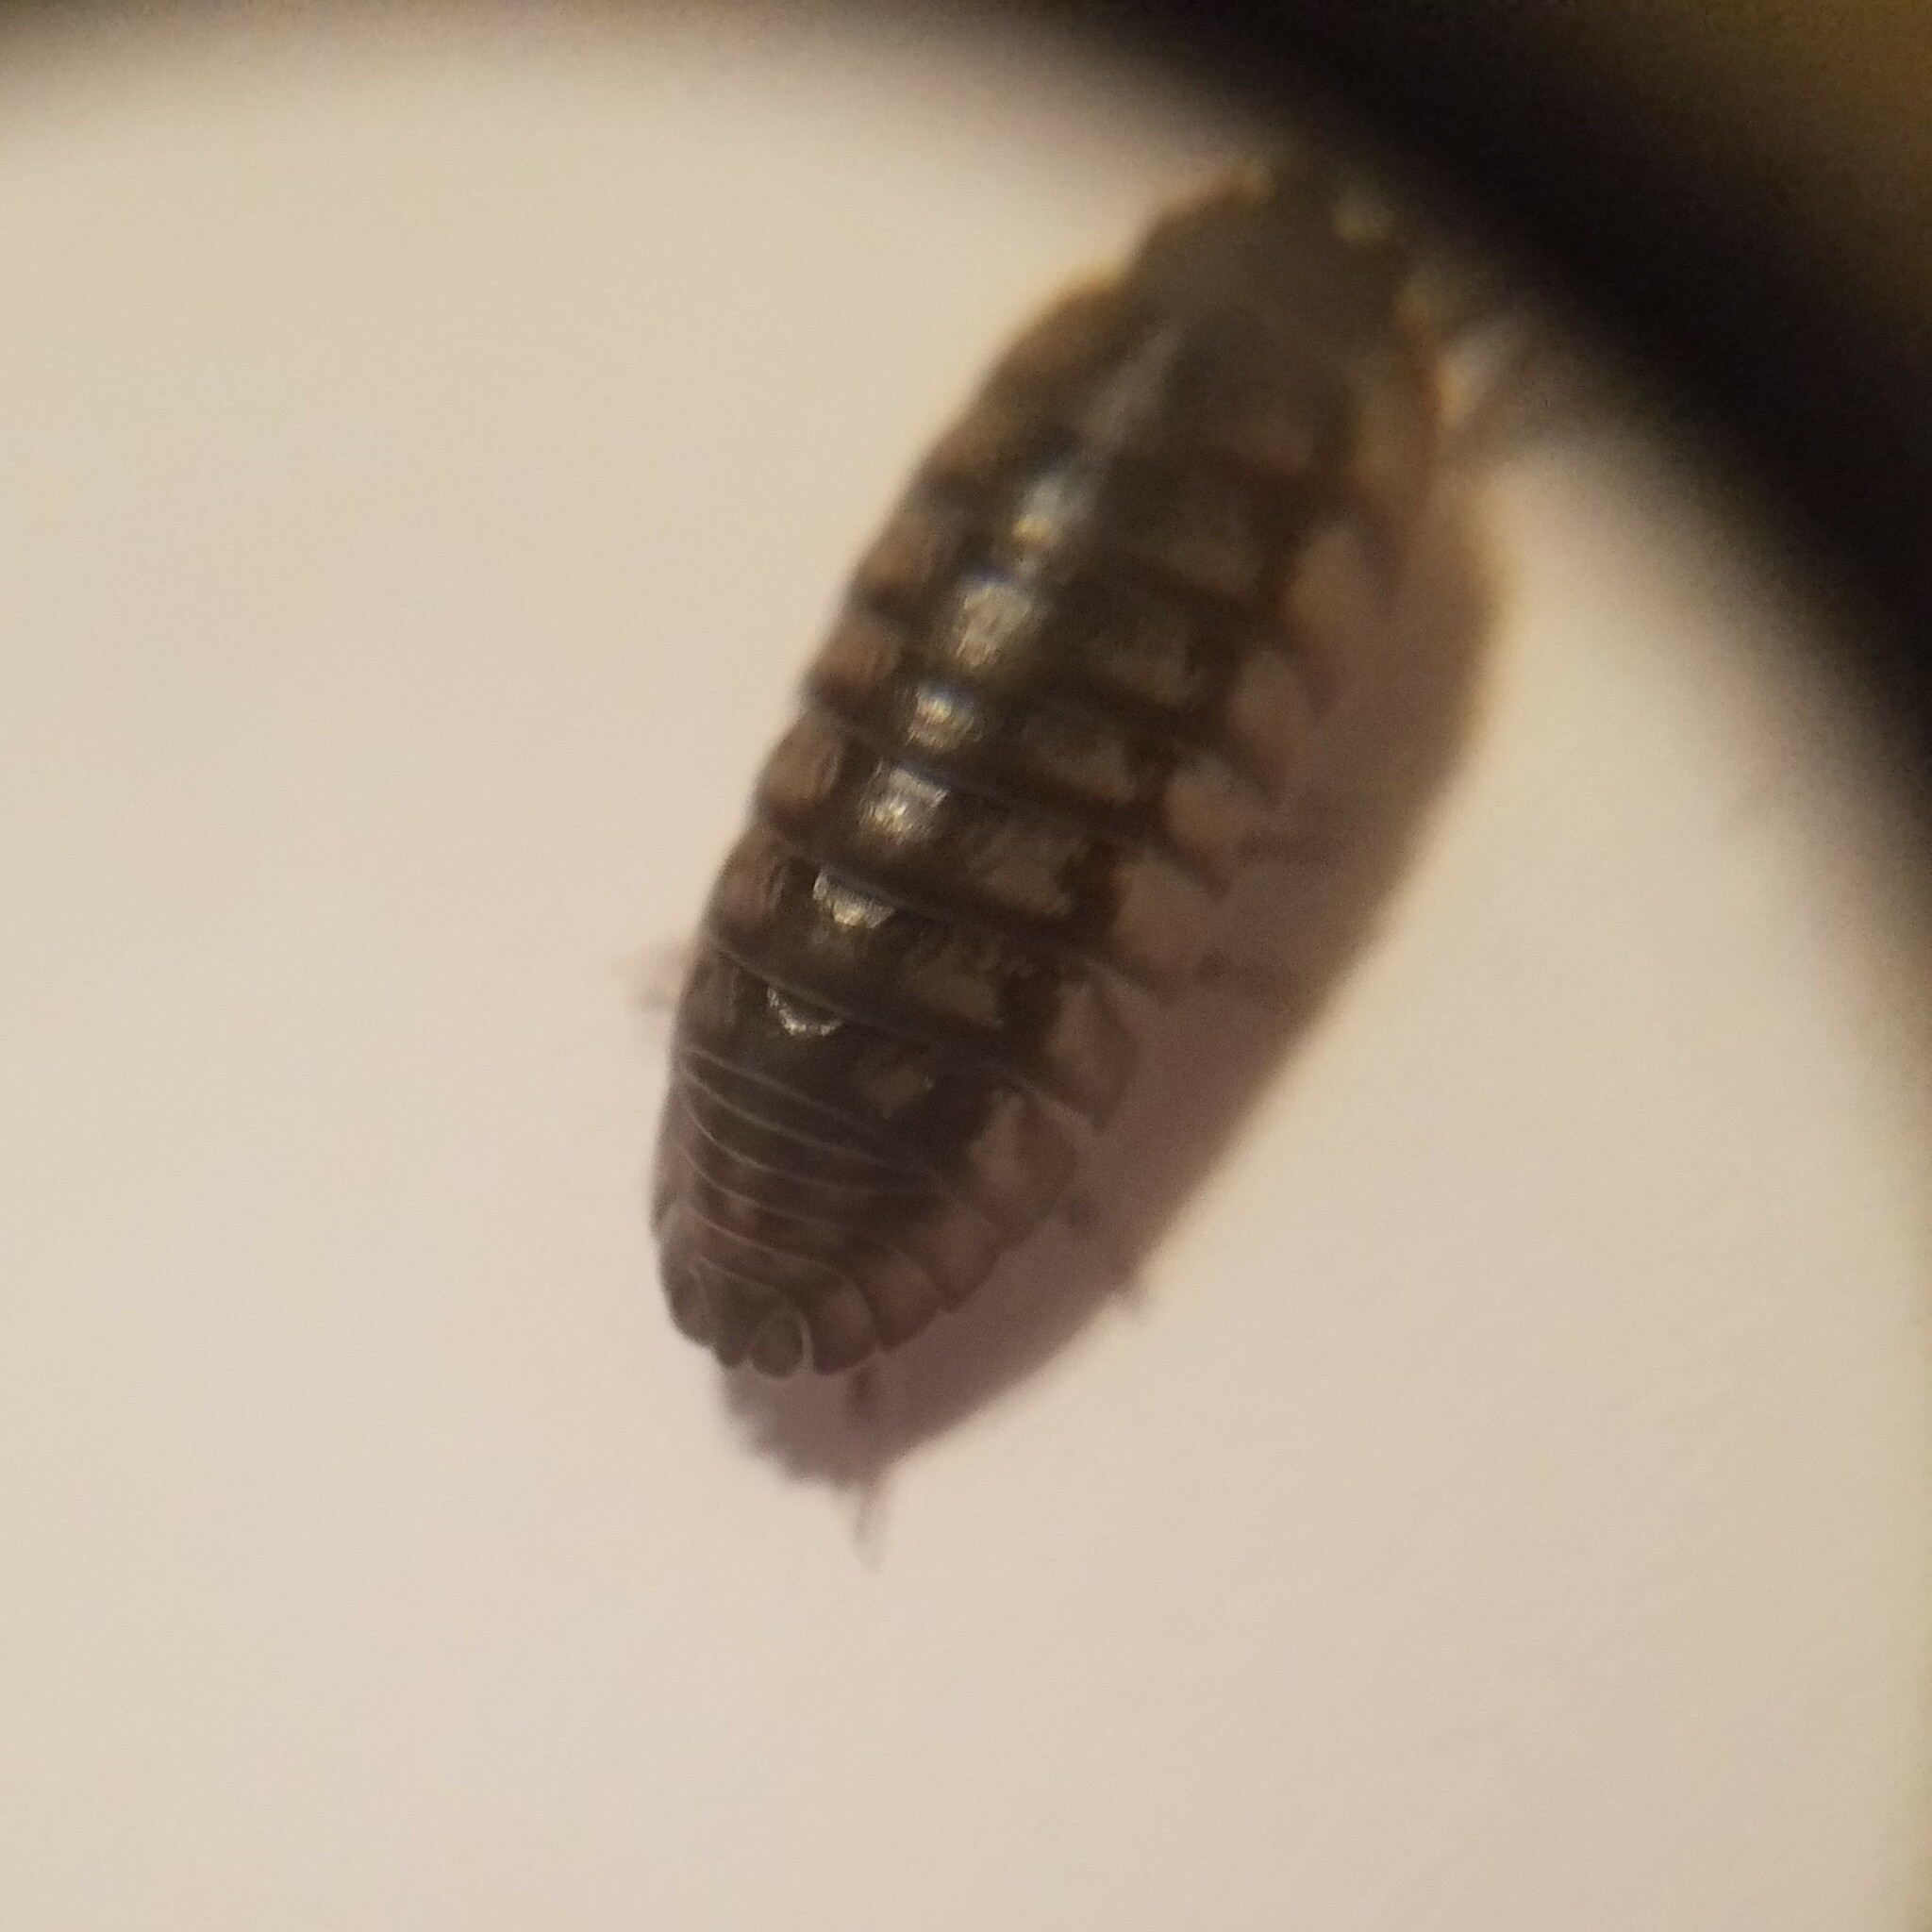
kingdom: Animalia
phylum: Arthropoda
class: Malacostraca
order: Isopoda
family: Armadillidiidae
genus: Armadillidium
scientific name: Armadillidium nasatum
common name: Isopod
